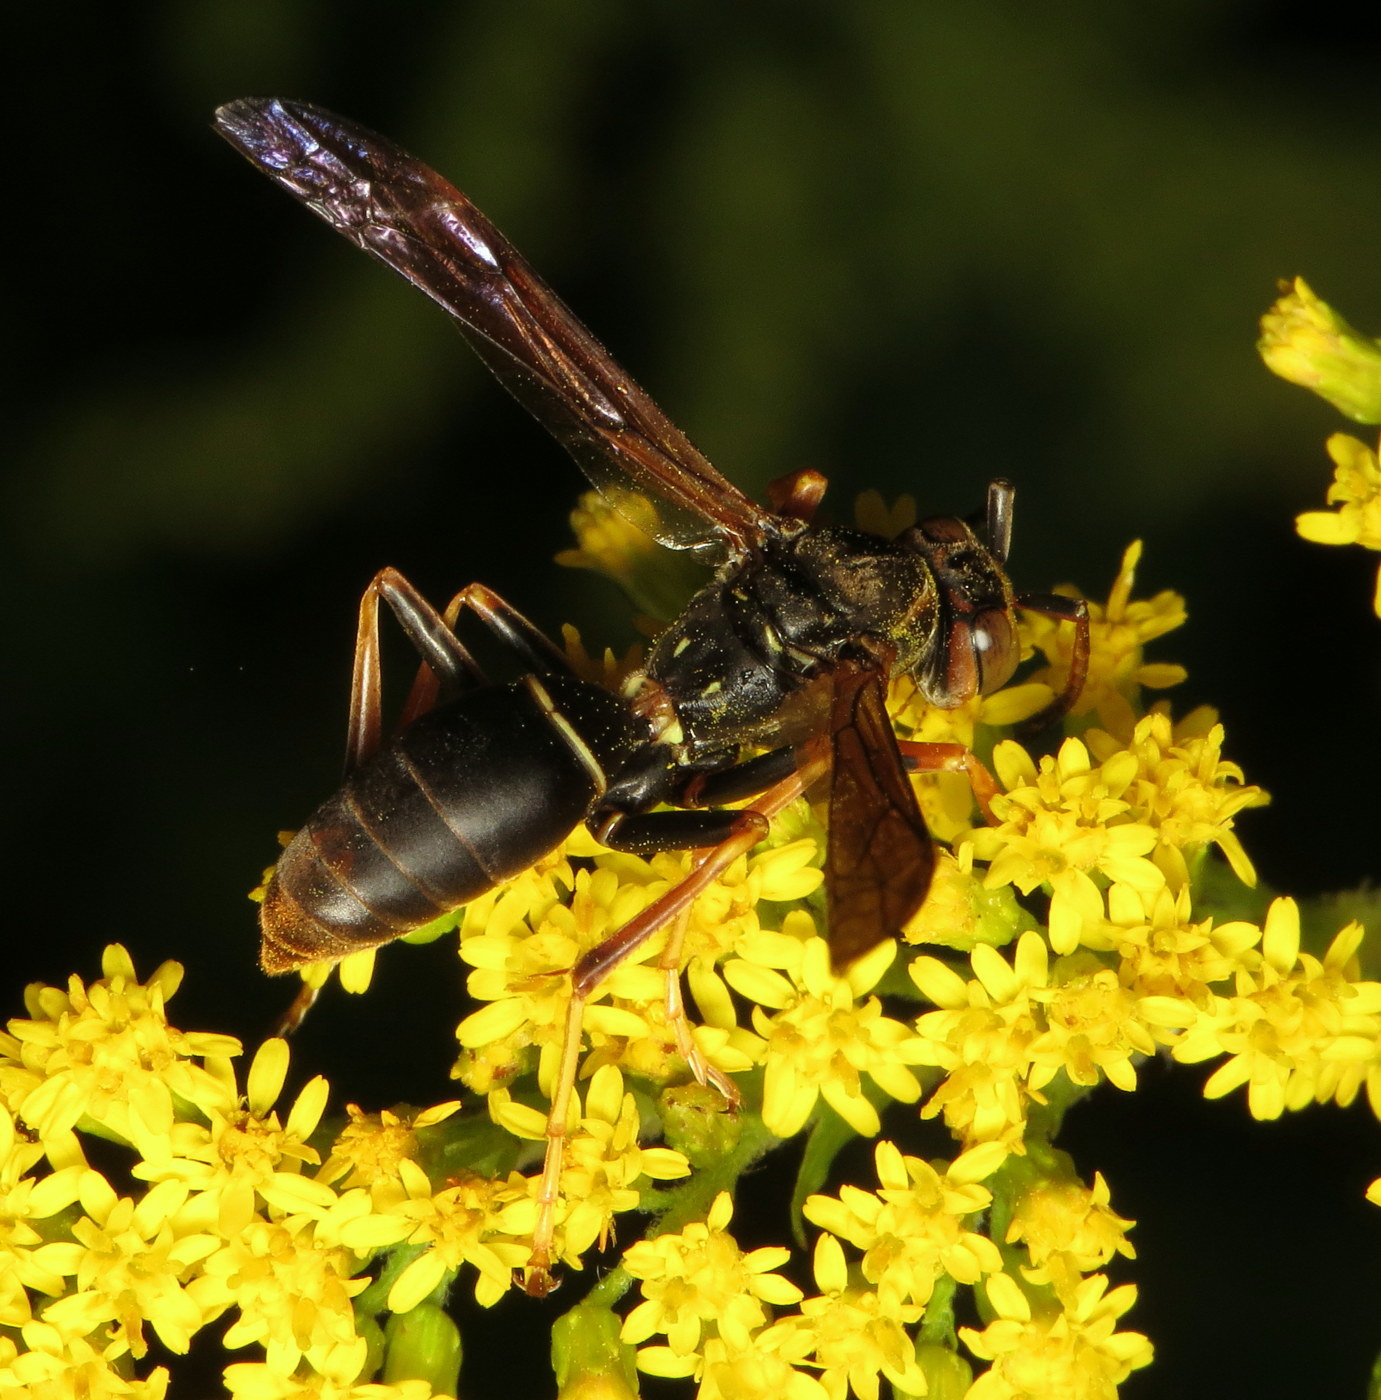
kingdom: Animalia
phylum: Arthropoda
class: Insecta
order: Hymenoptera
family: Eumenidae
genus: Polistes
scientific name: Polistes fuscatus
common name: Dark paper wasp
